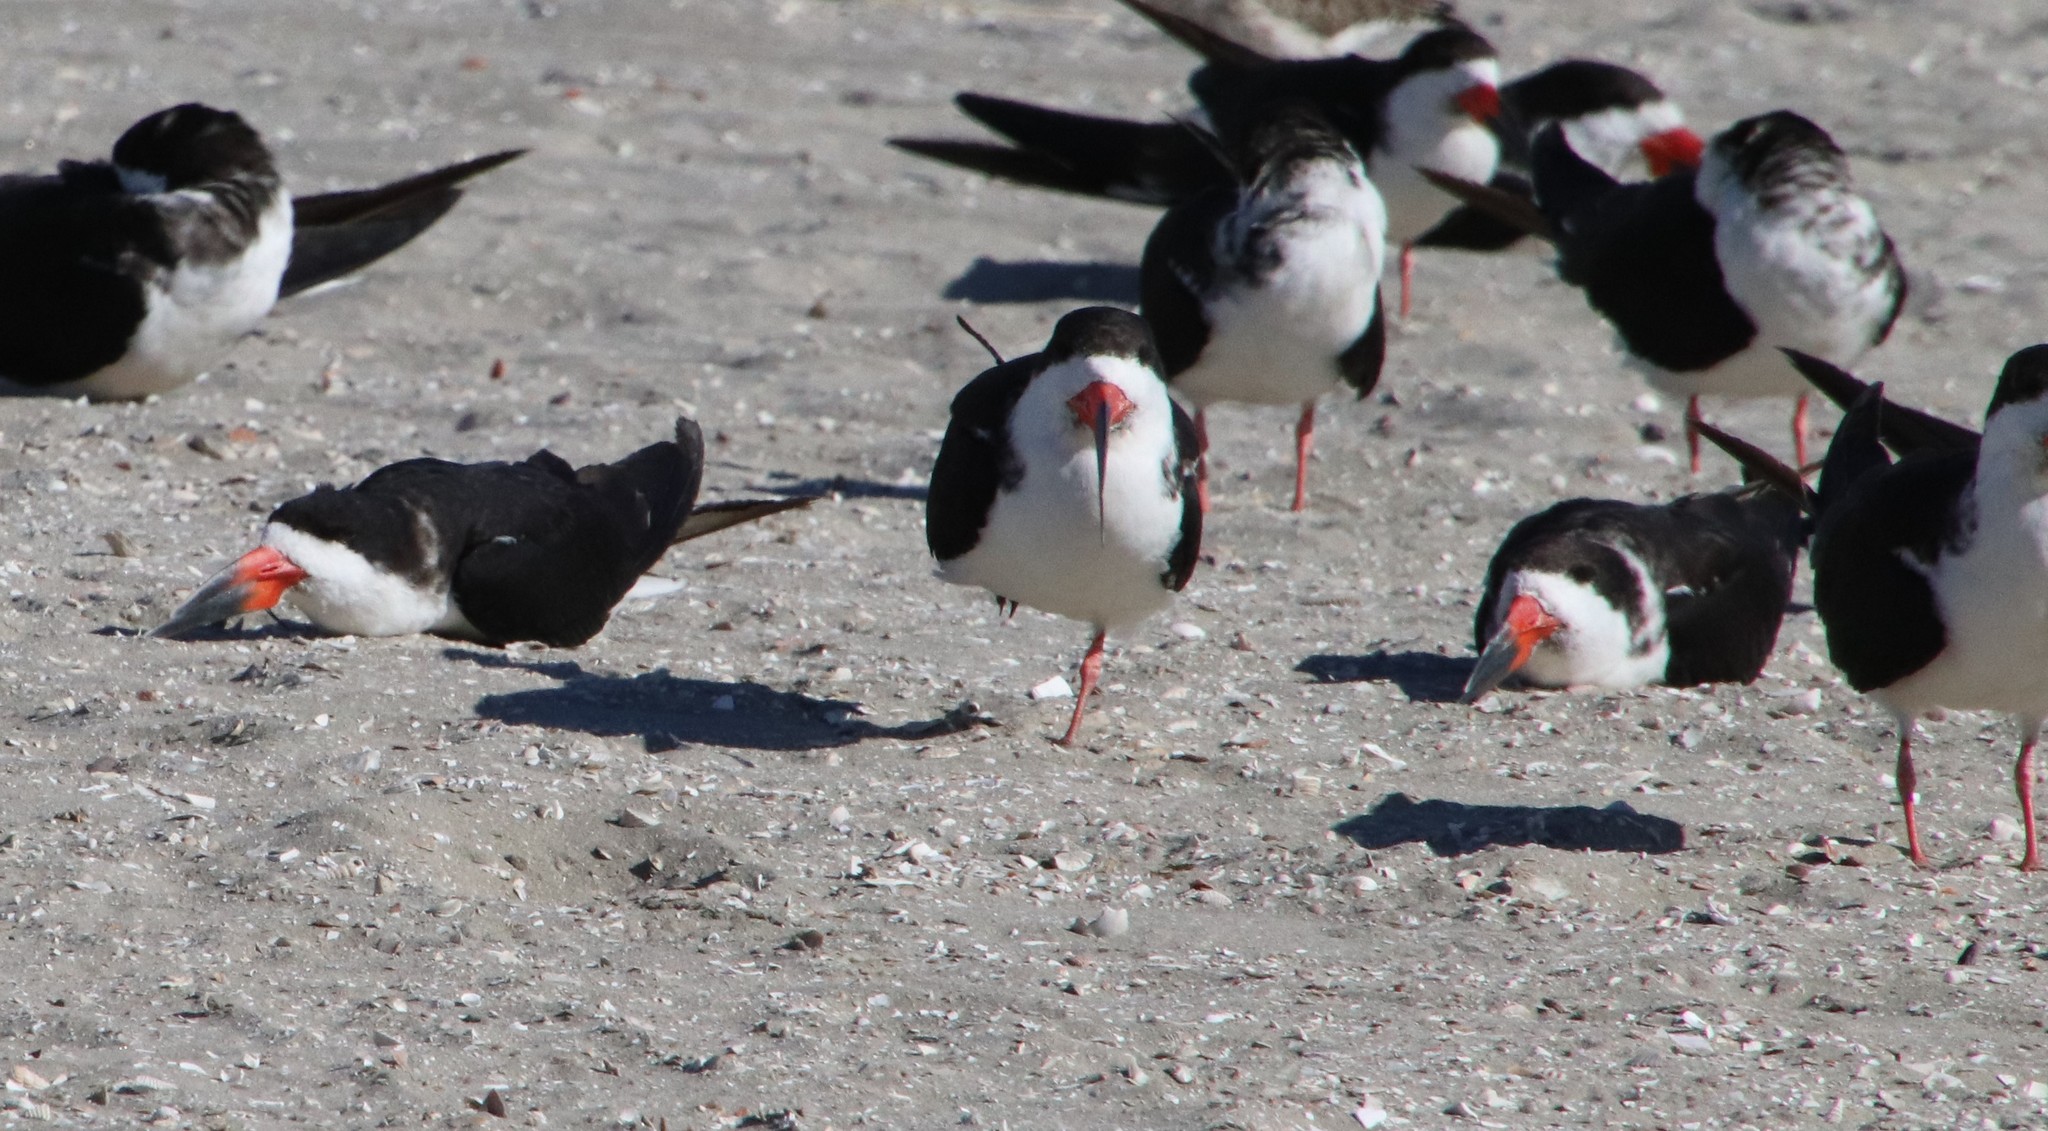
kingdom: Animalia
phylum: Chordata
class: Aves
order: Charadriiformes
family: Laridae
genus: Rynchops
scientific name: Rynchops niger
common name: Black skimmer
